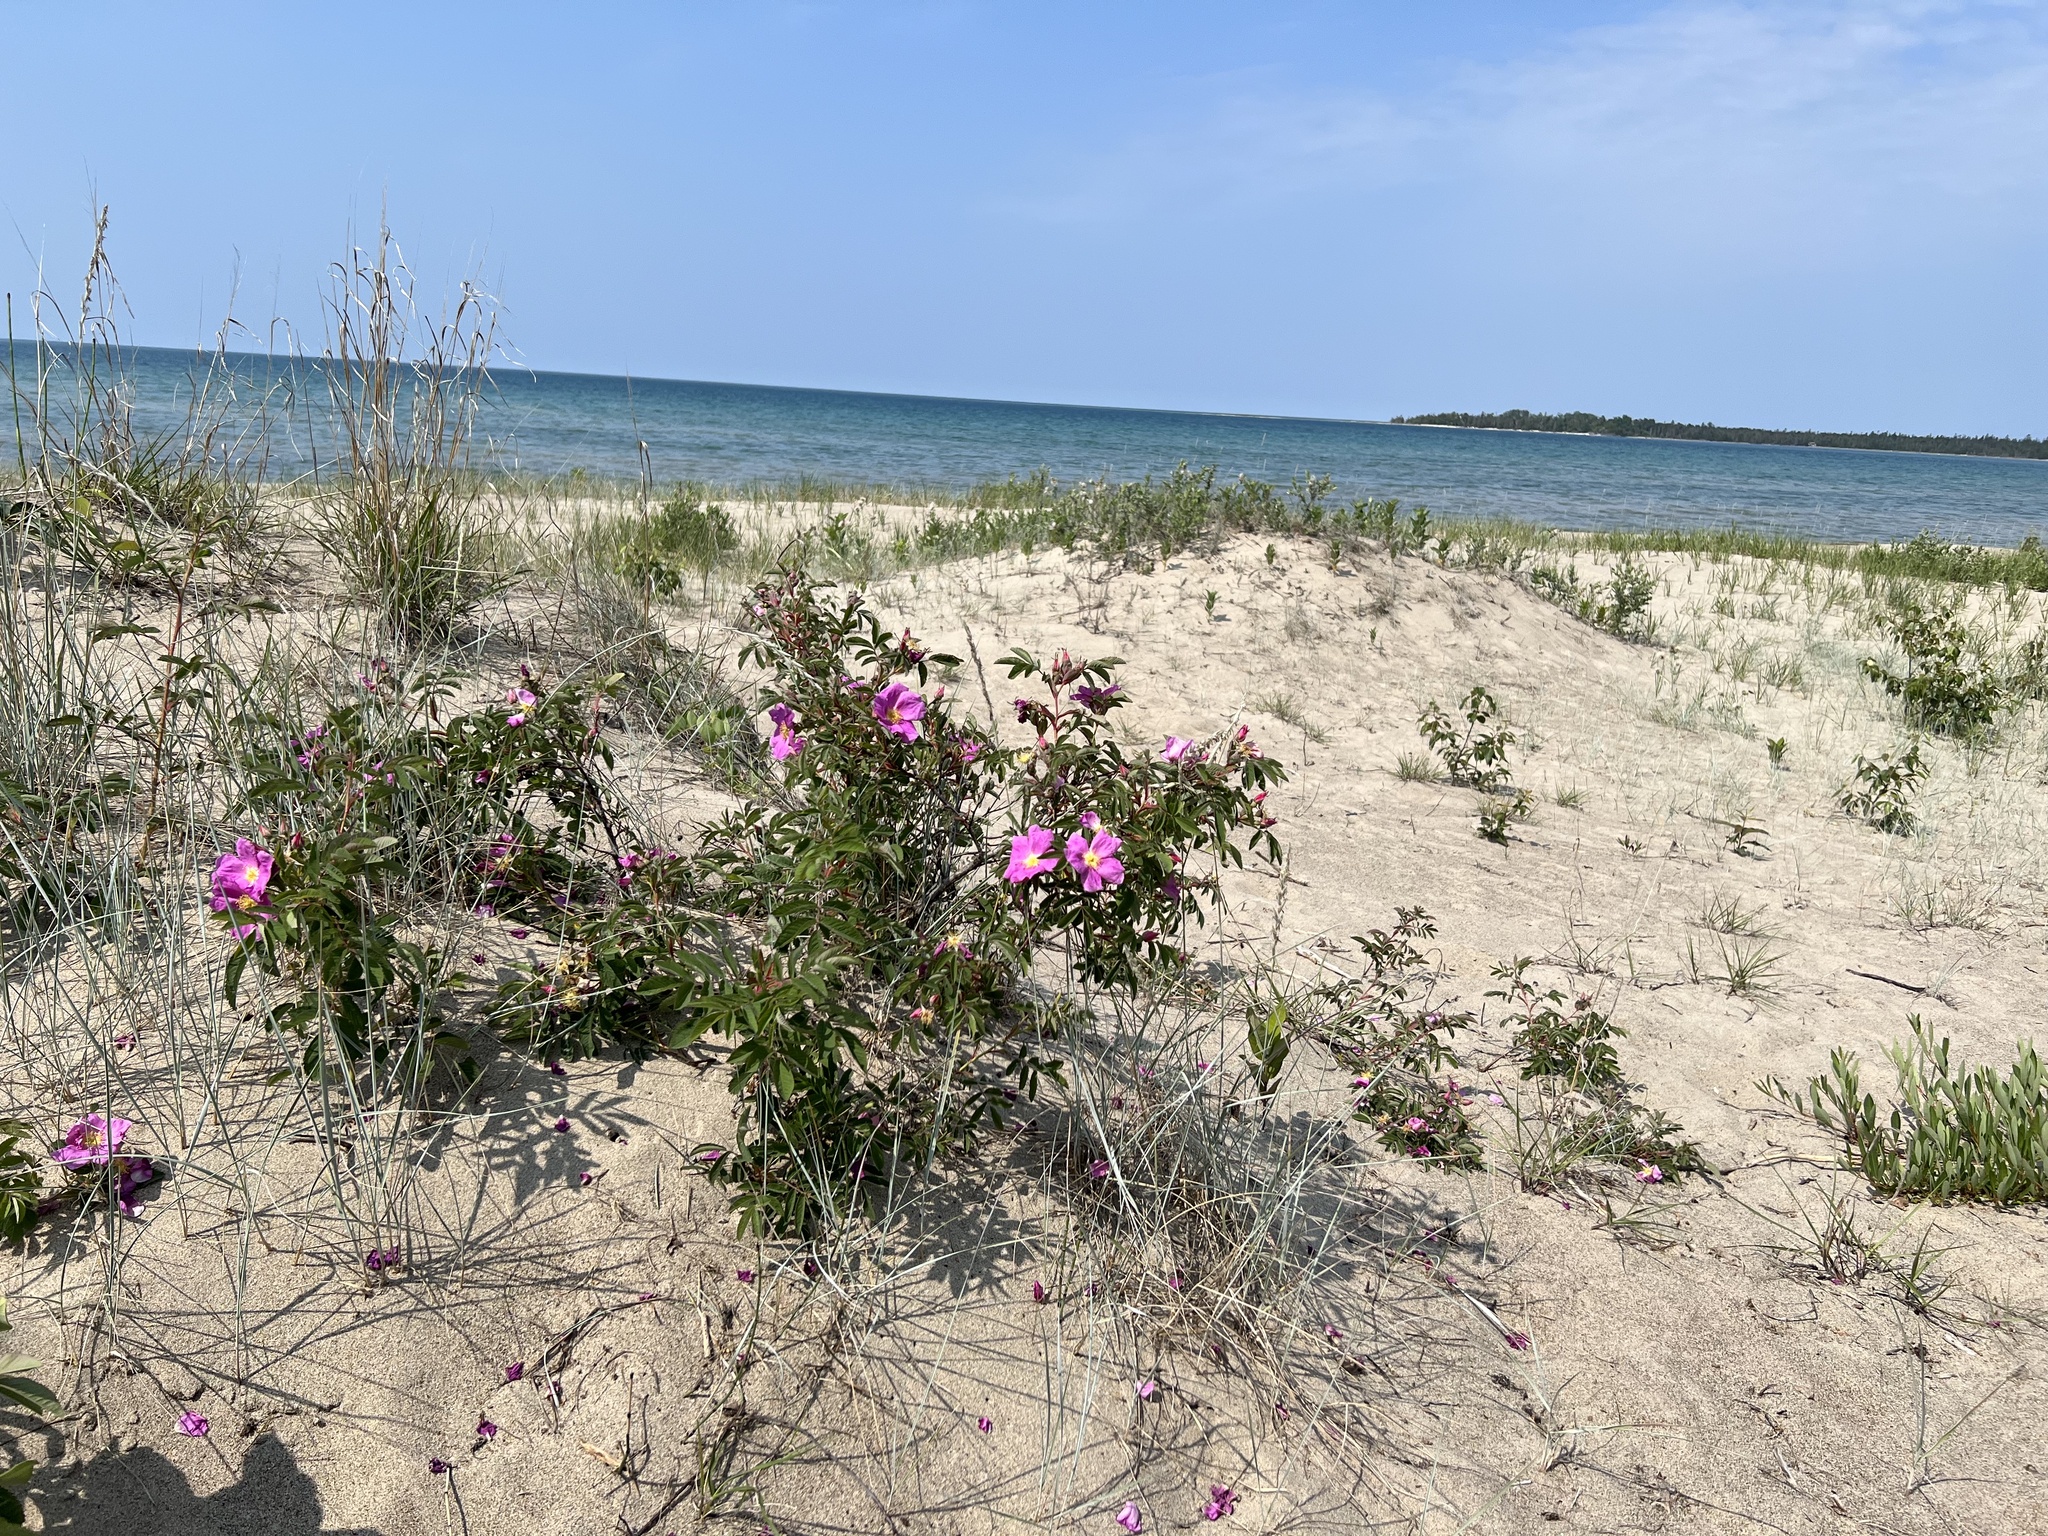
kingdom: Plantae
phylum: Tracheophyta
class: Magnoliopsida
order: Rosales
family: Rosaceae
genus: Rosa
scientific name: Rosa rugosa
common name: Japanese rose
